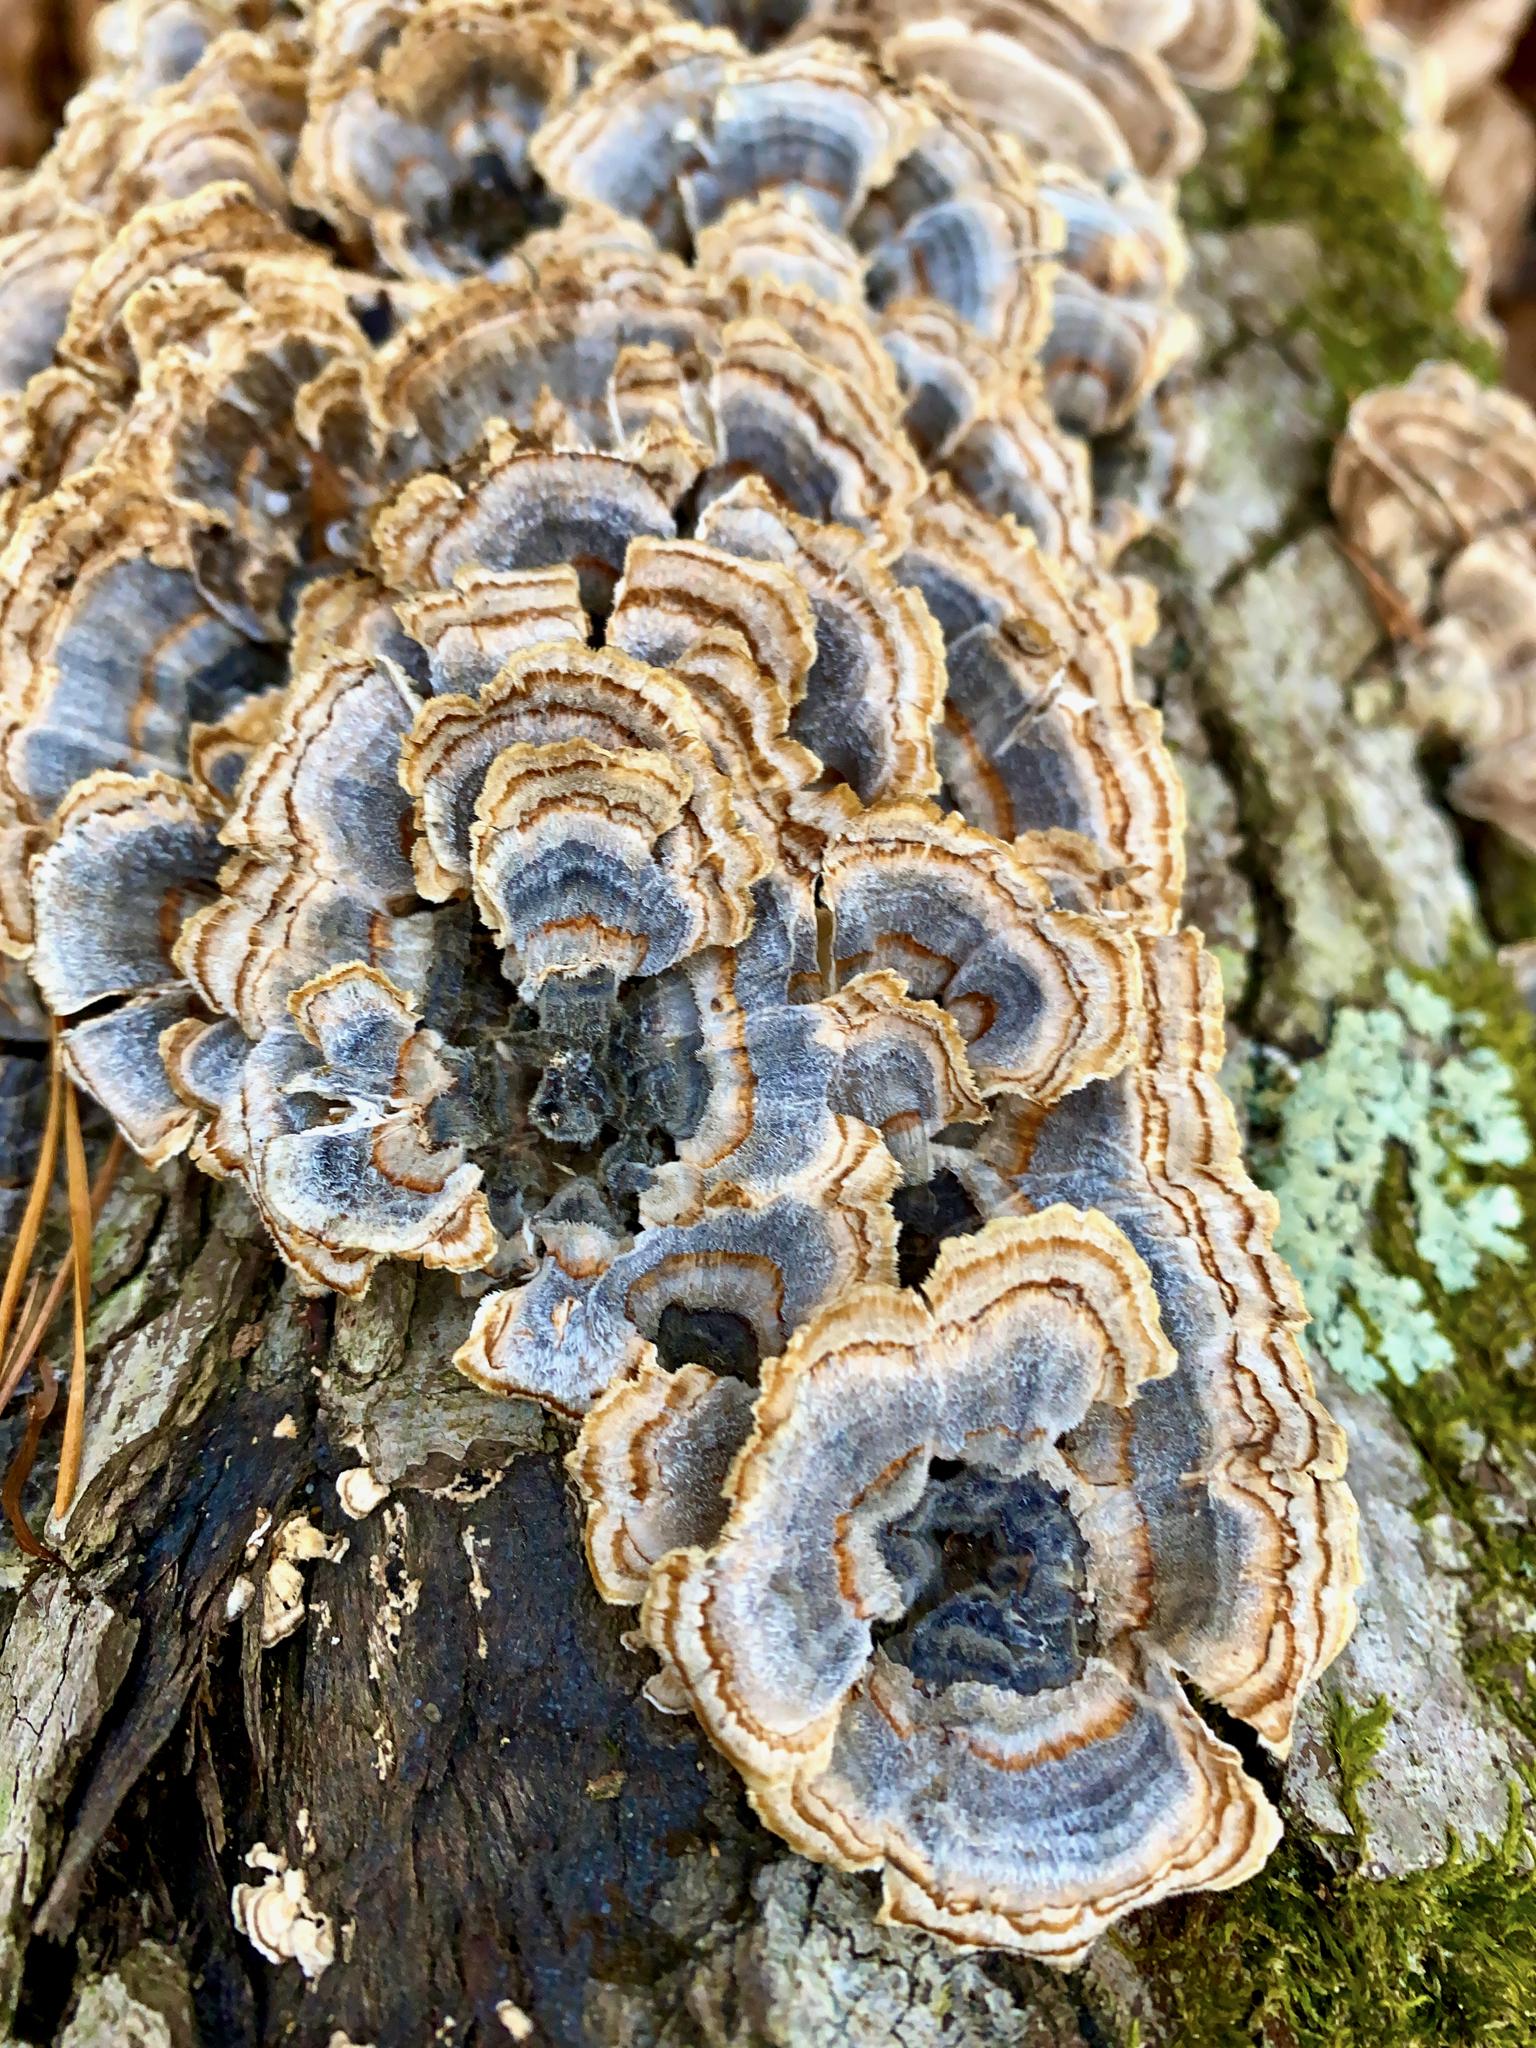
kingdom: Fungi
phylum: Basidiomycota
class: Agaricomycetes
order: Polyporales
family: Polyporaceae
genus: Trametes
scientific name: Trametes versicolor
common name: Turkeytail
